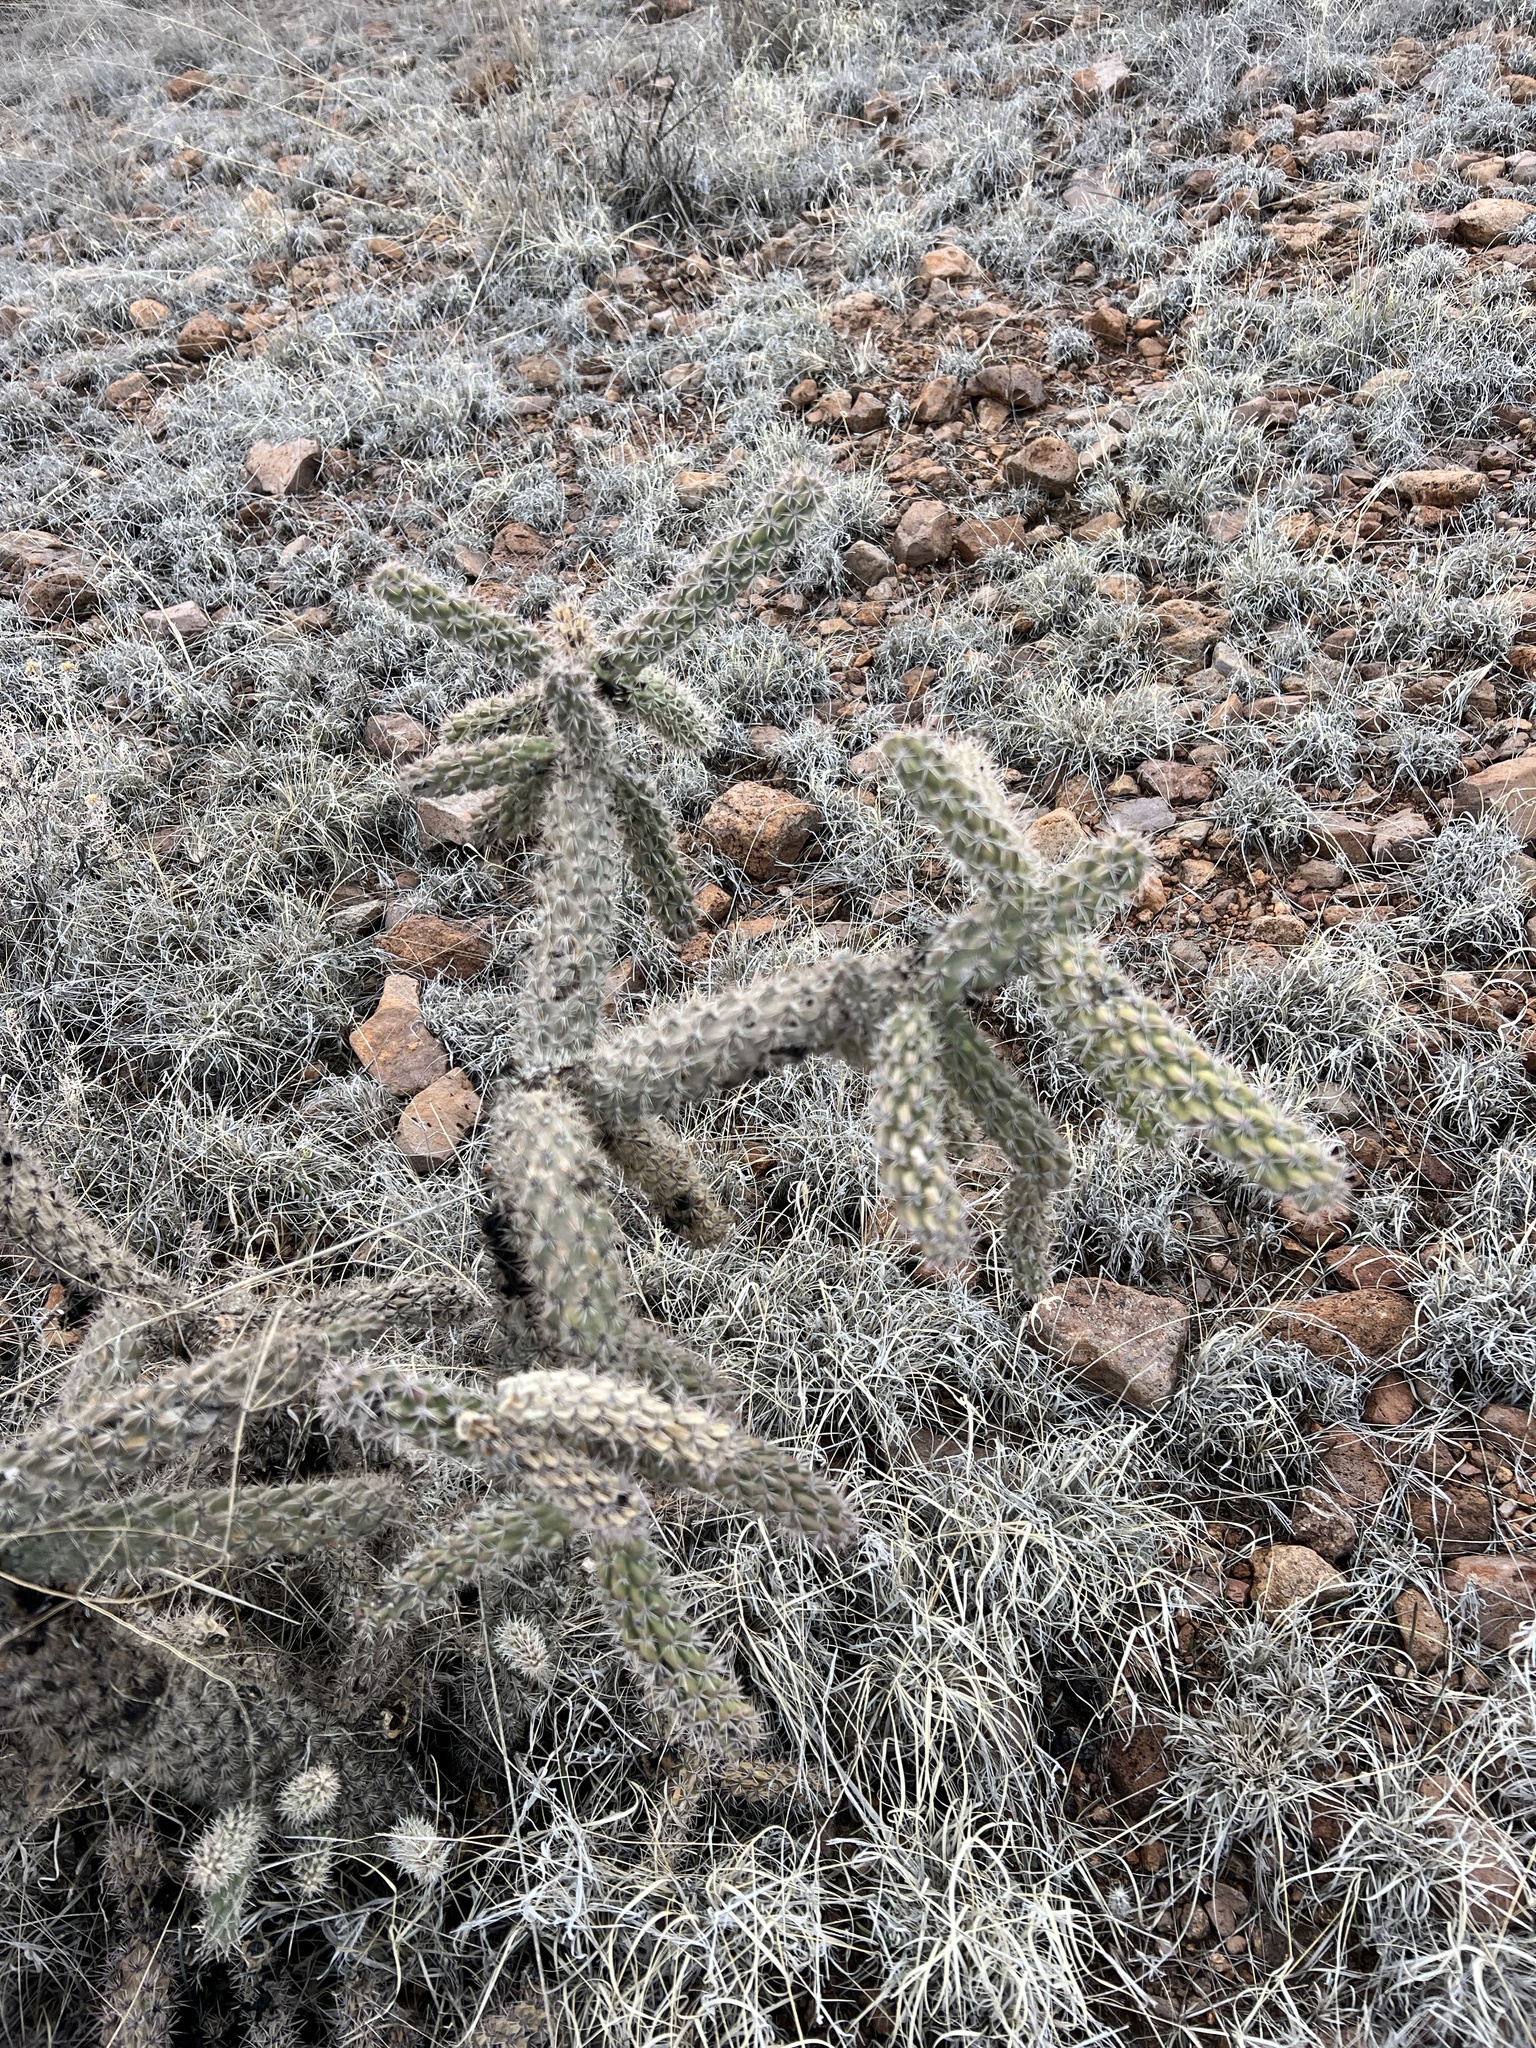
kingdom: Plantae
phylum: Tracheophyta
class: Magnoliopsida
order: Caryophyllales
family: Cactaceae
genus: Cylindropuntia
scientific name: Cylindropuntia imbricata
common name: Candelabrum cactus
